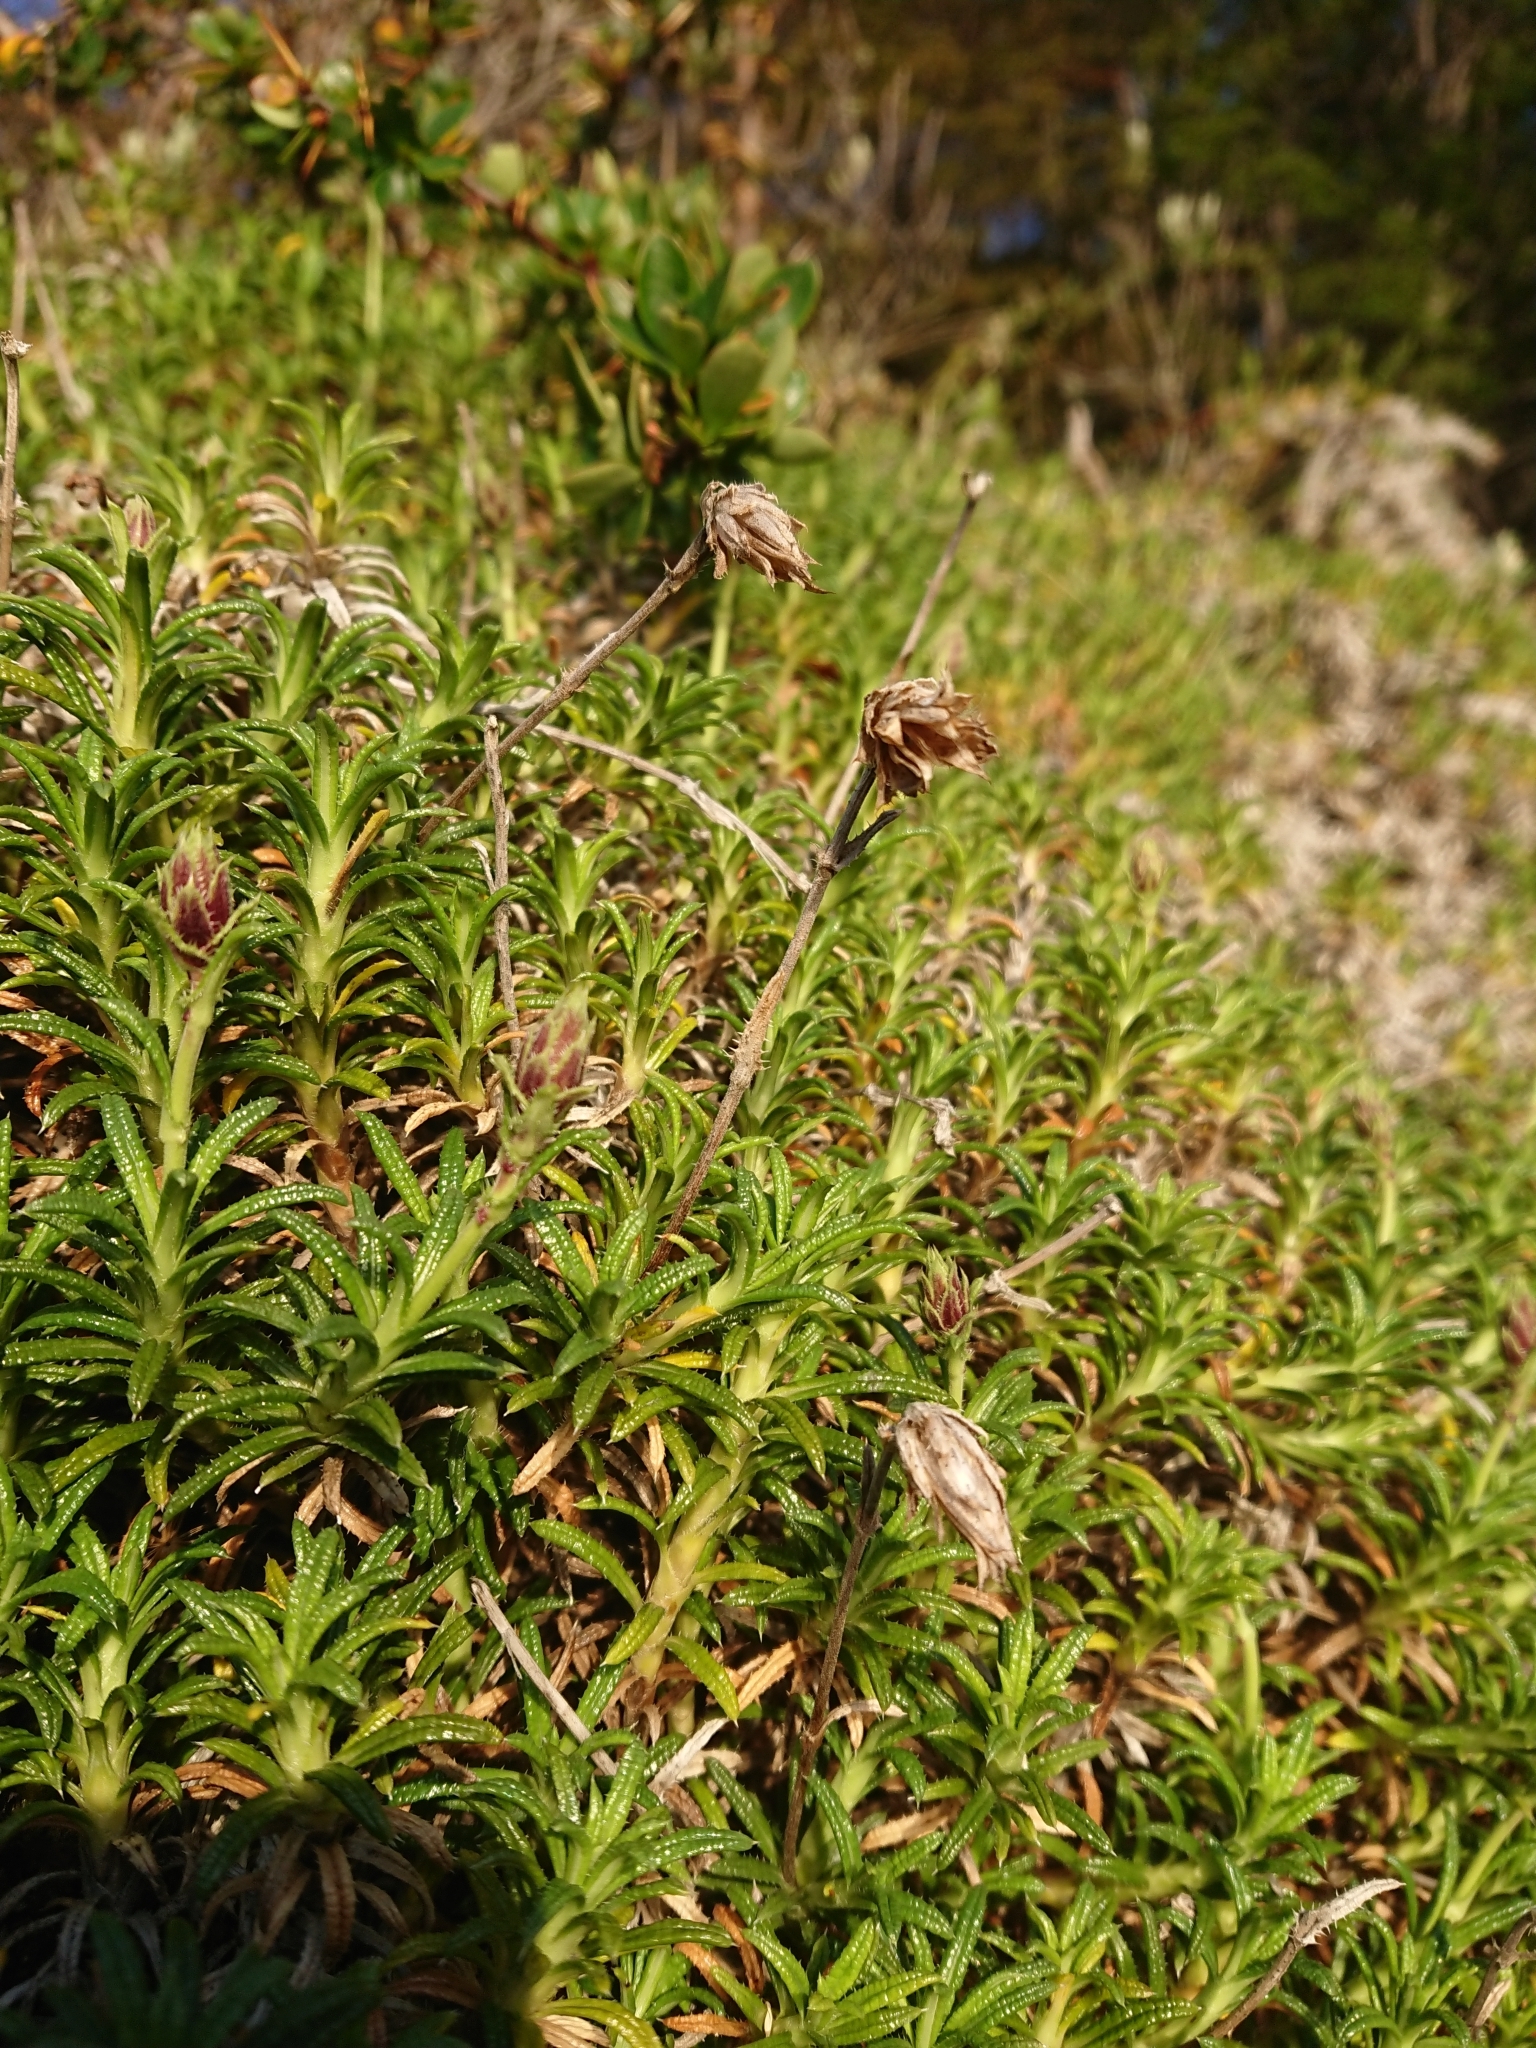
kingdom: Plantae
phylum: Tracheophyta
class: Magnoliopsida
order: Asterales
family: Asteraceae
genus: Perezia
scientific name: Perezia recurvata
